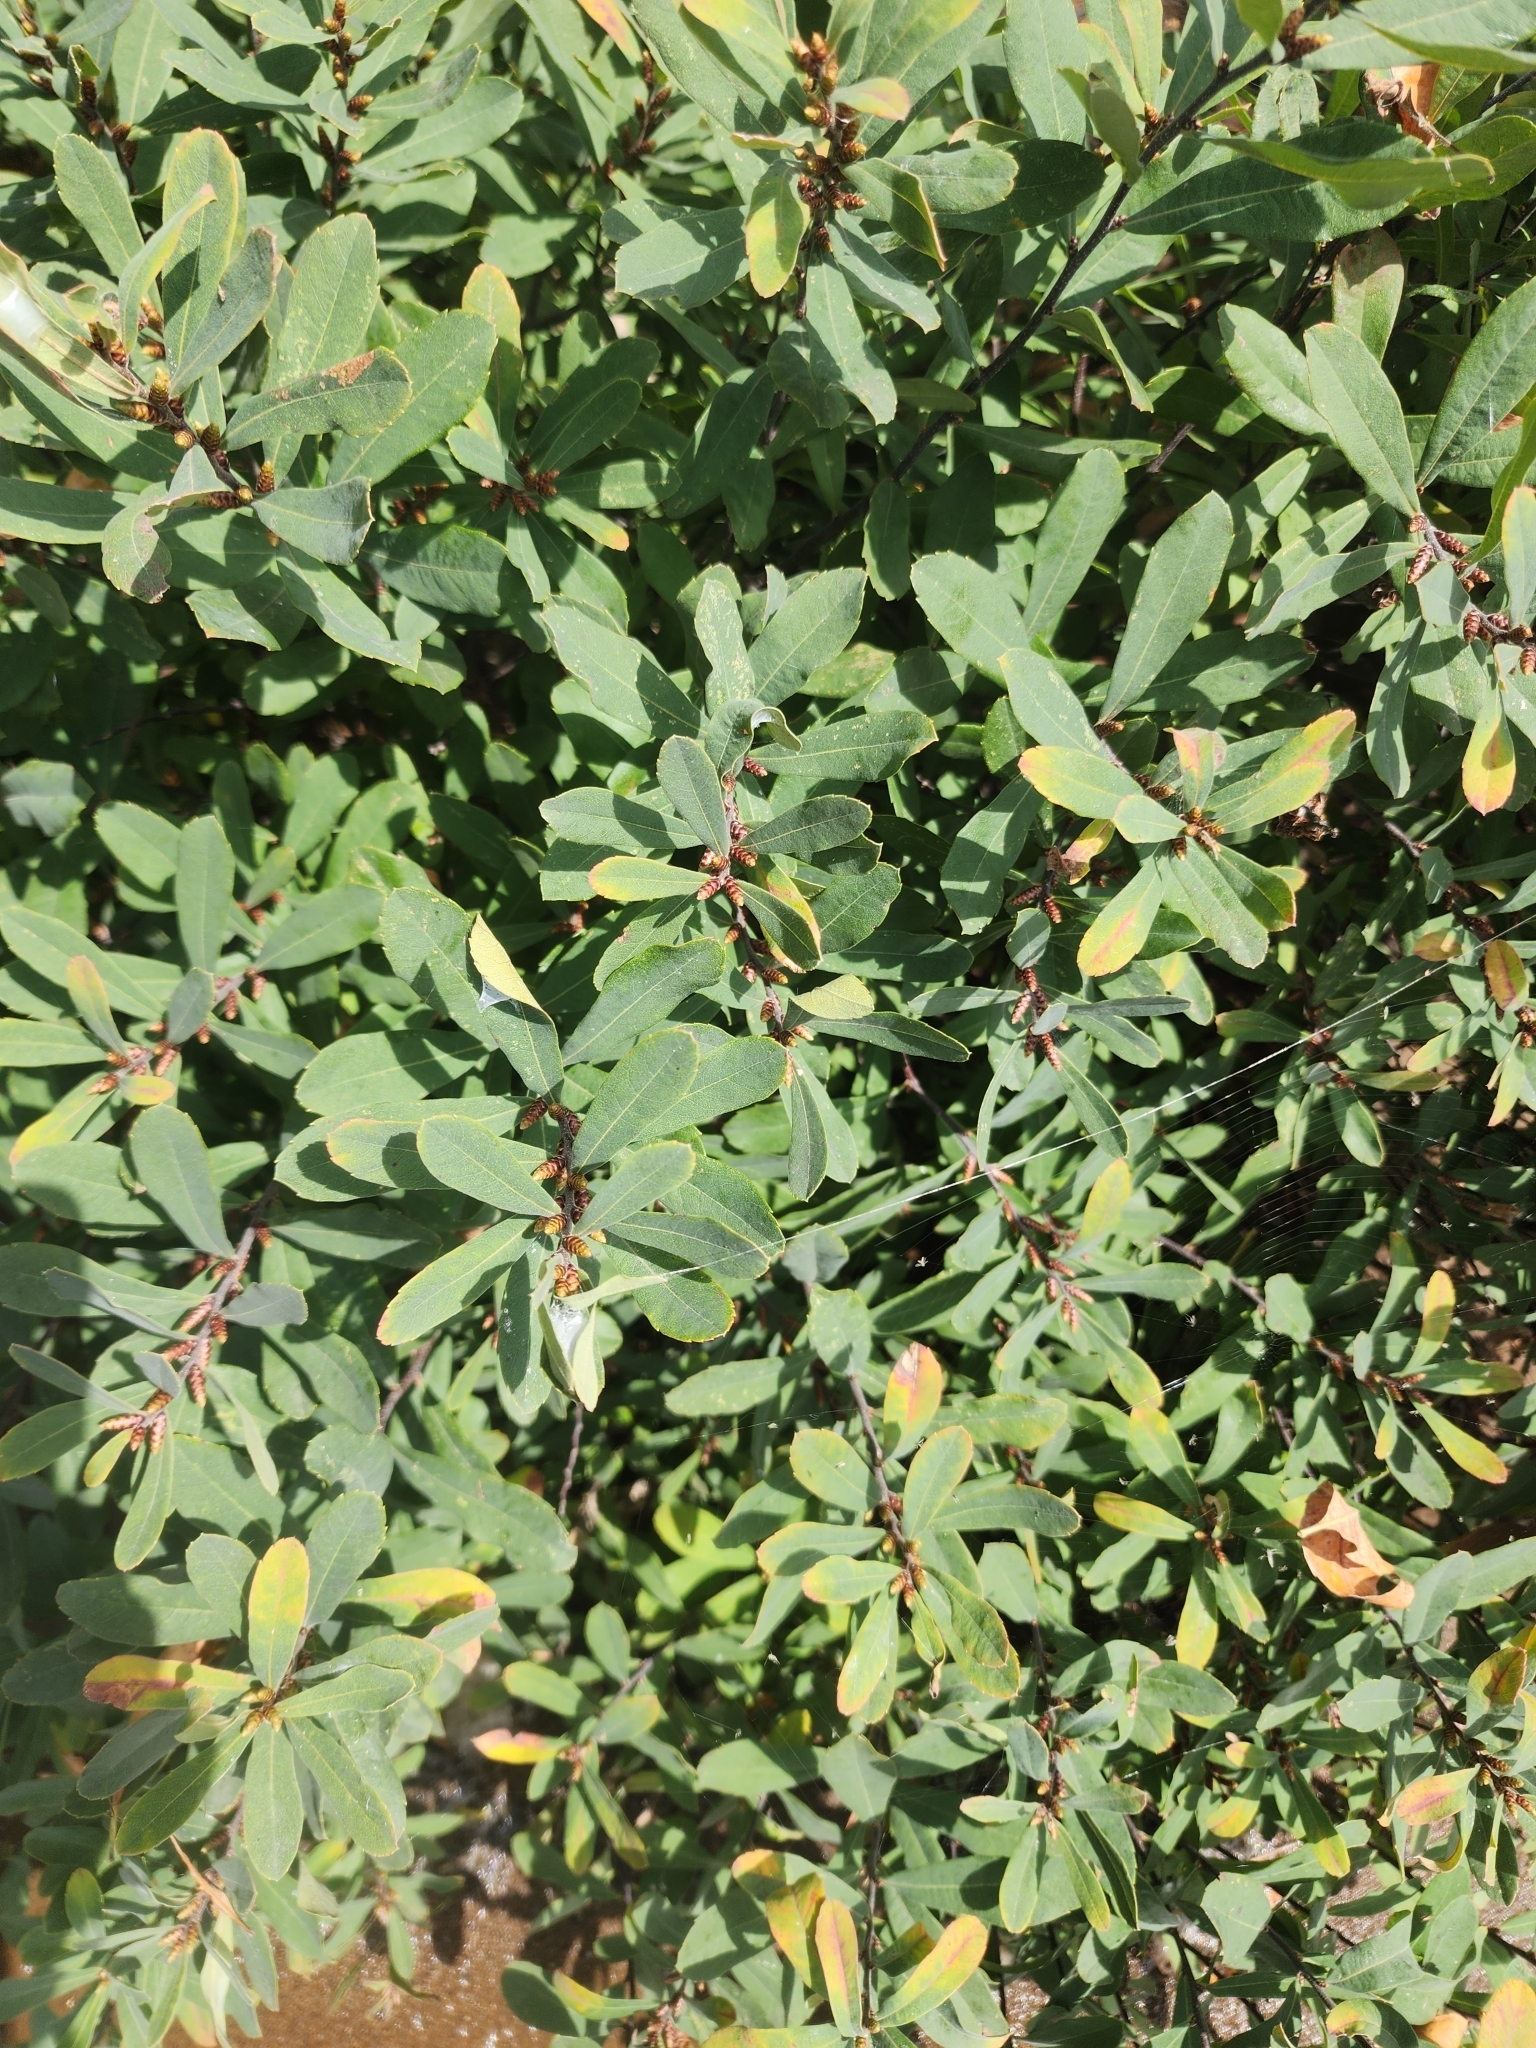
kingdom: Plantae
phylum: Tracheophyta
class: Magnoliopsida
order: Fagales
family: Myricaceae
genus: Myrica
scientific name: Myrica gale
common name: Sweet gale
